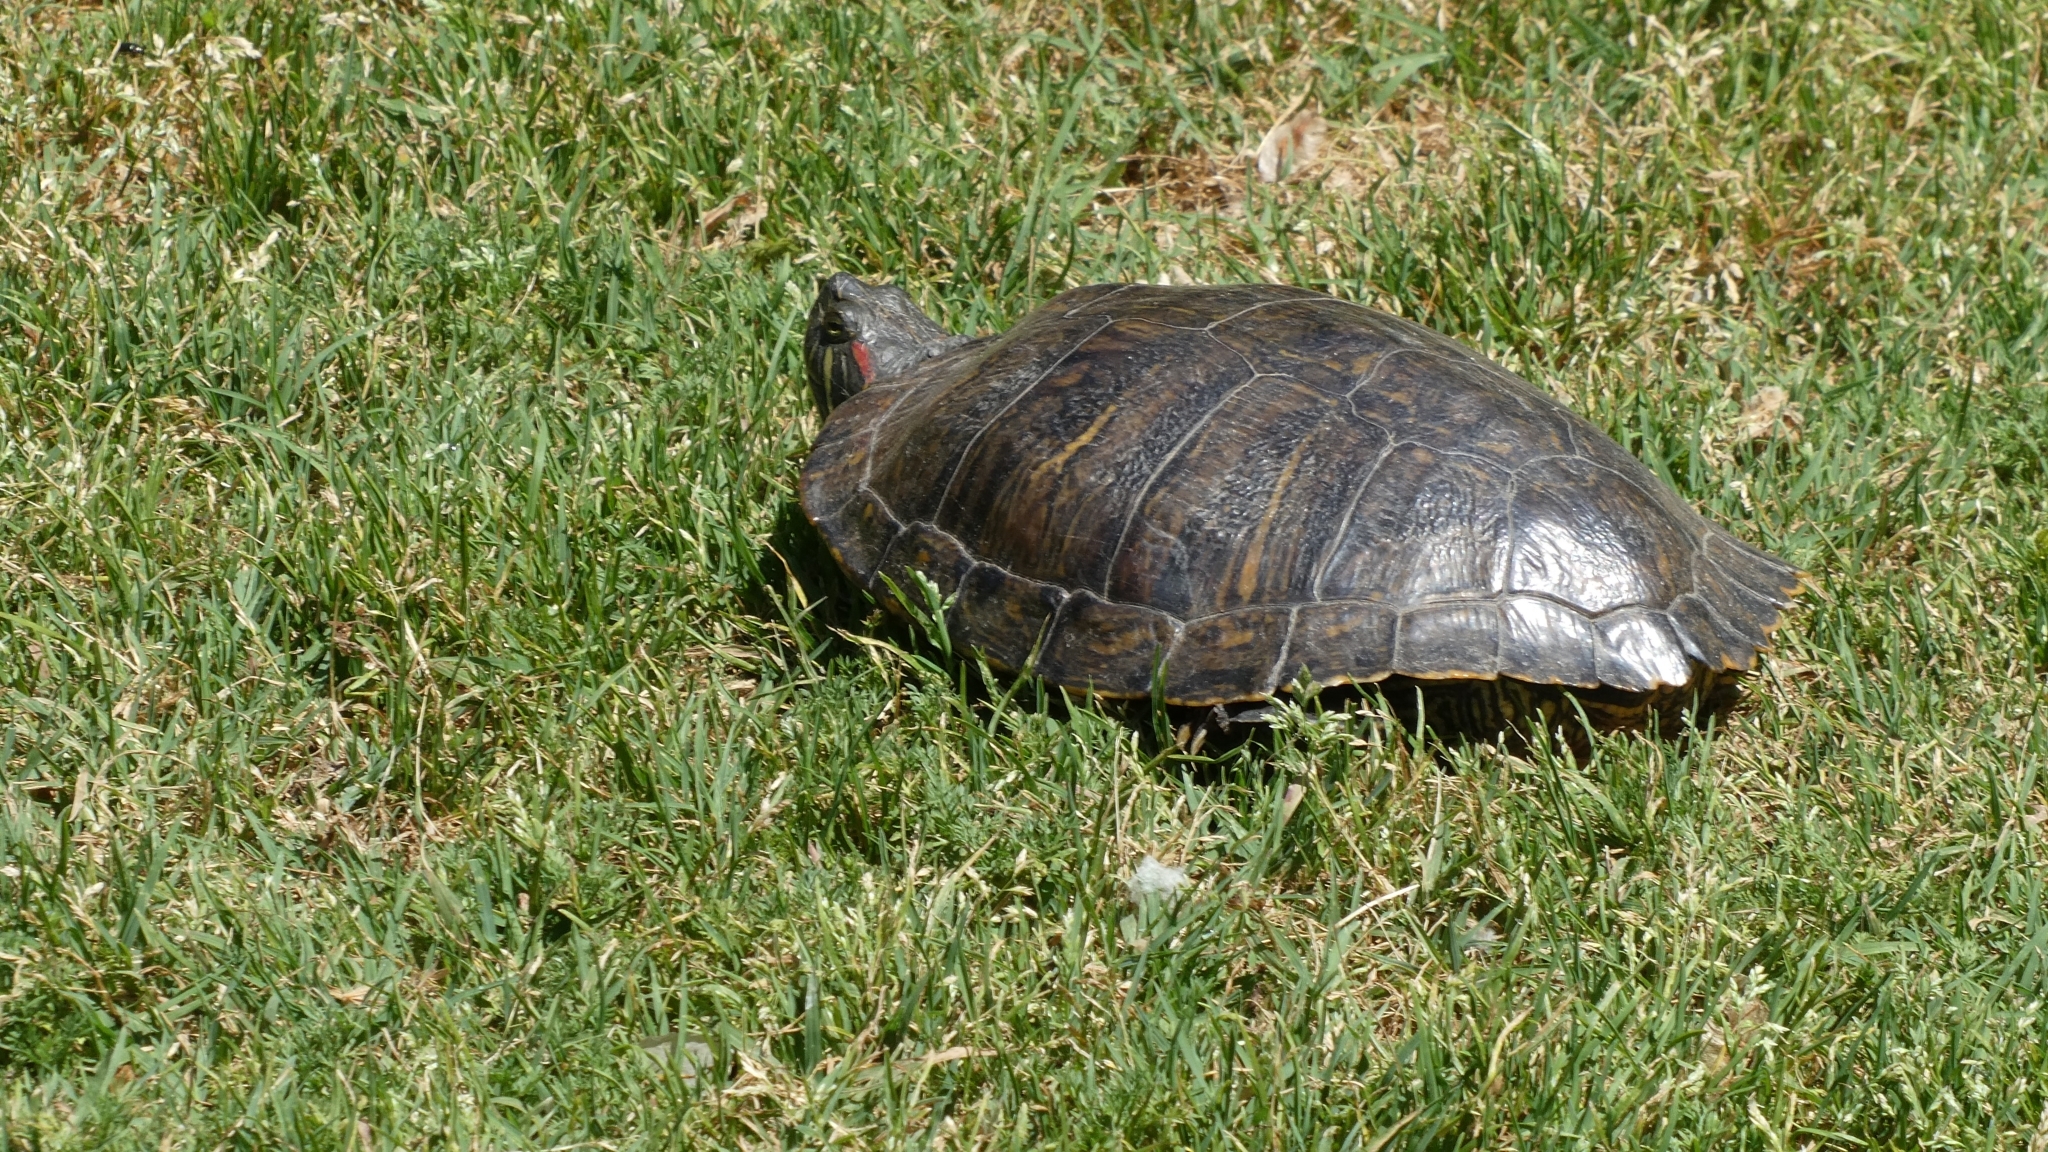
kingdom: Animalia
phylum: Chordata
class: Testudines
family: Emydidae
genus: Trachemys
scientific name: Trachemys scripta
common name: Slider
